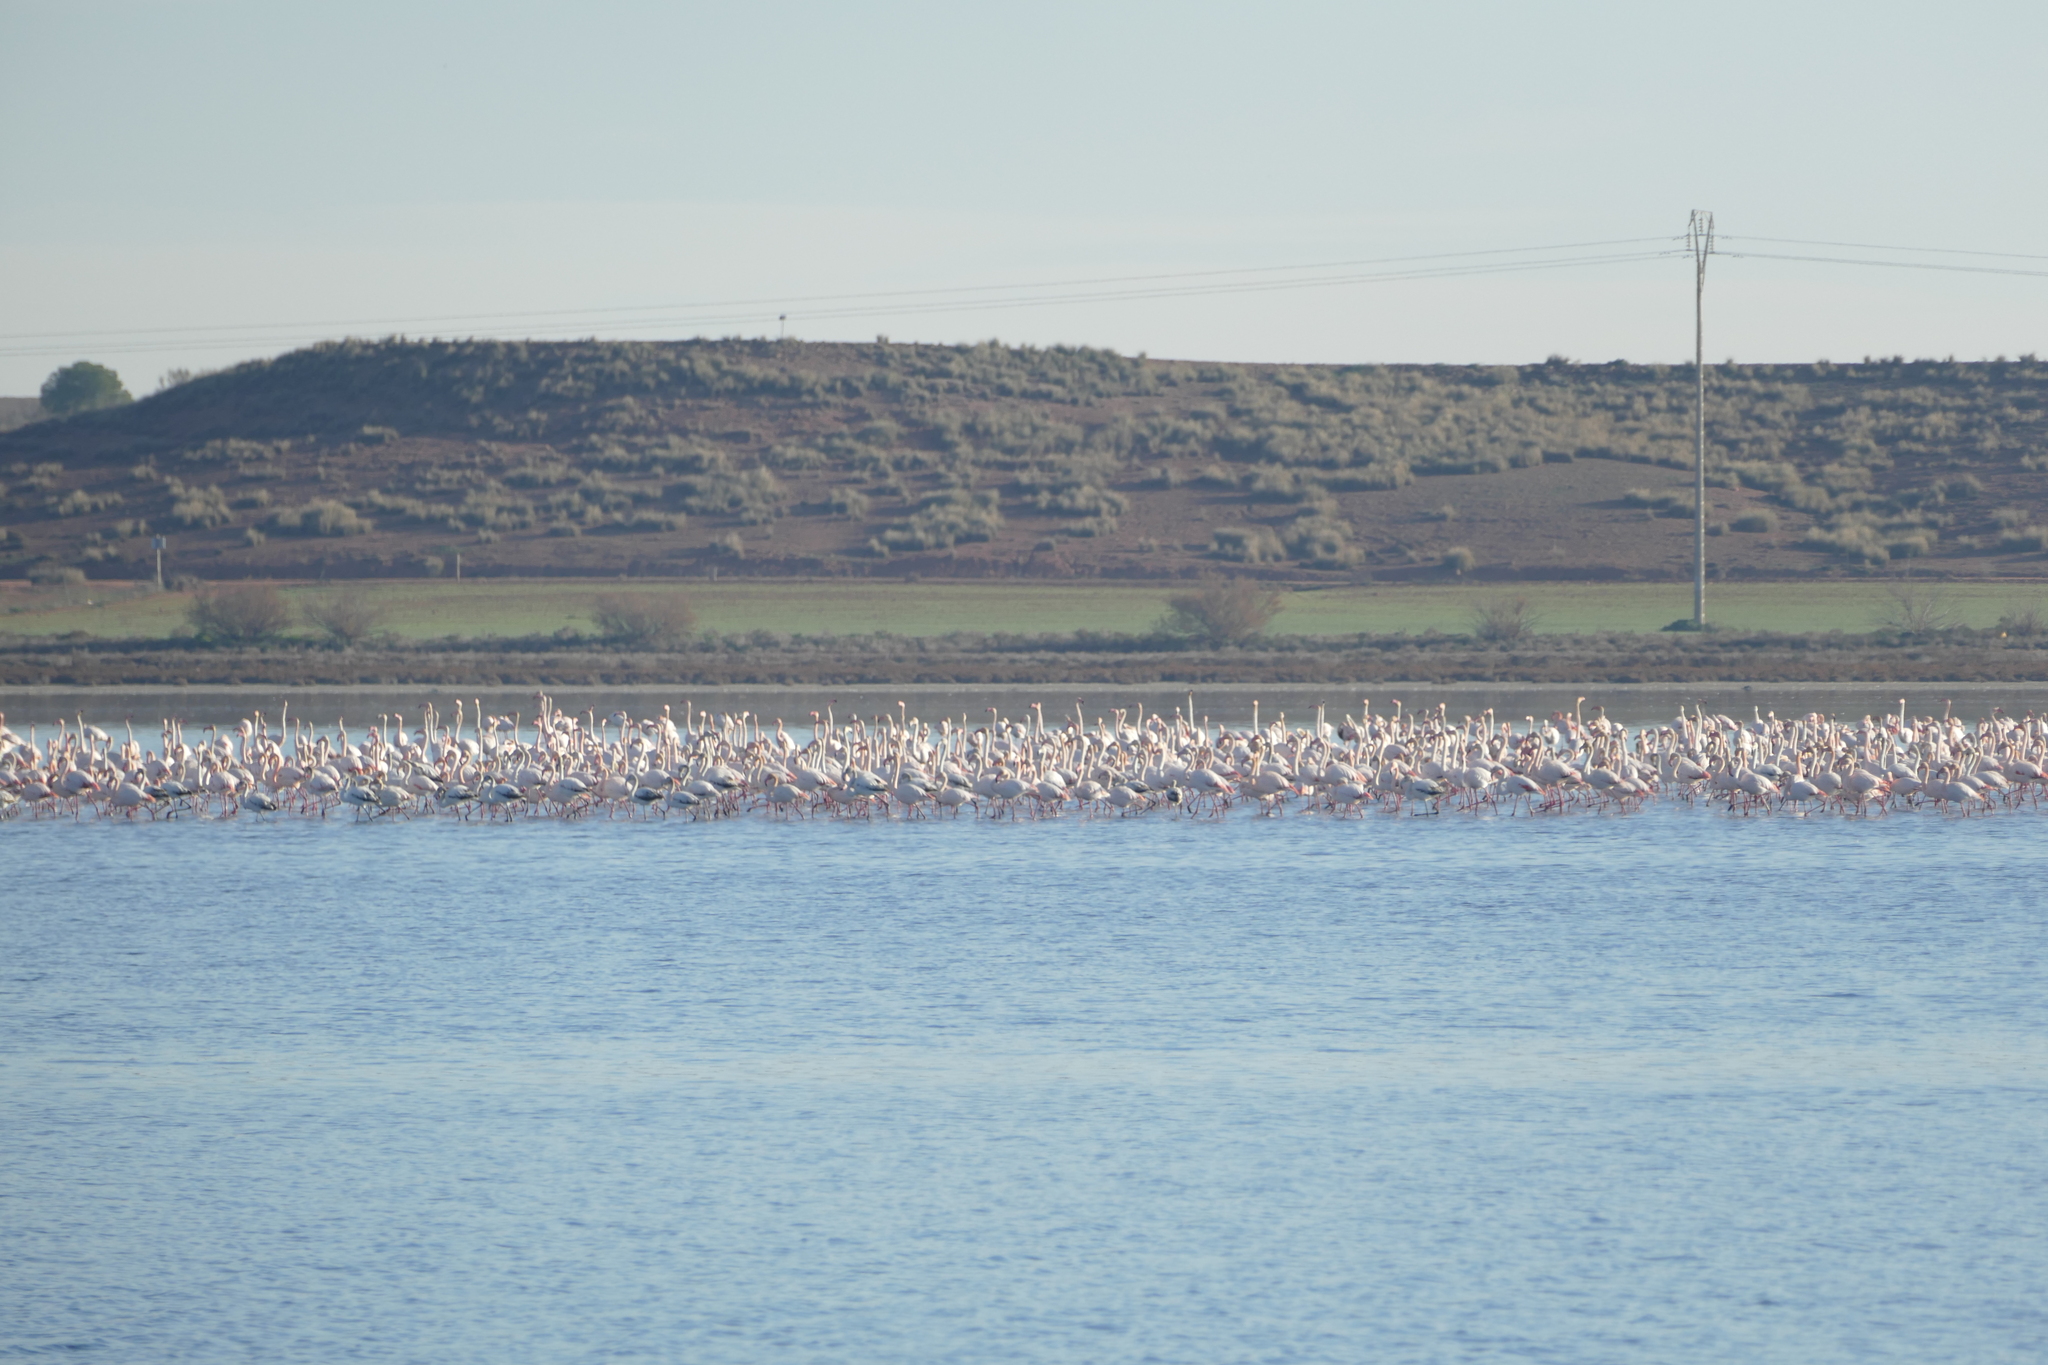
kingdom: Animalia
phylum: Chordata
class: Aves
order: Phoenicopteriformes
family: Phoenicopteridae
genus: Phoenicopterus
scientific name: Phoenicopterus roseus
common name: Greater flamingo
